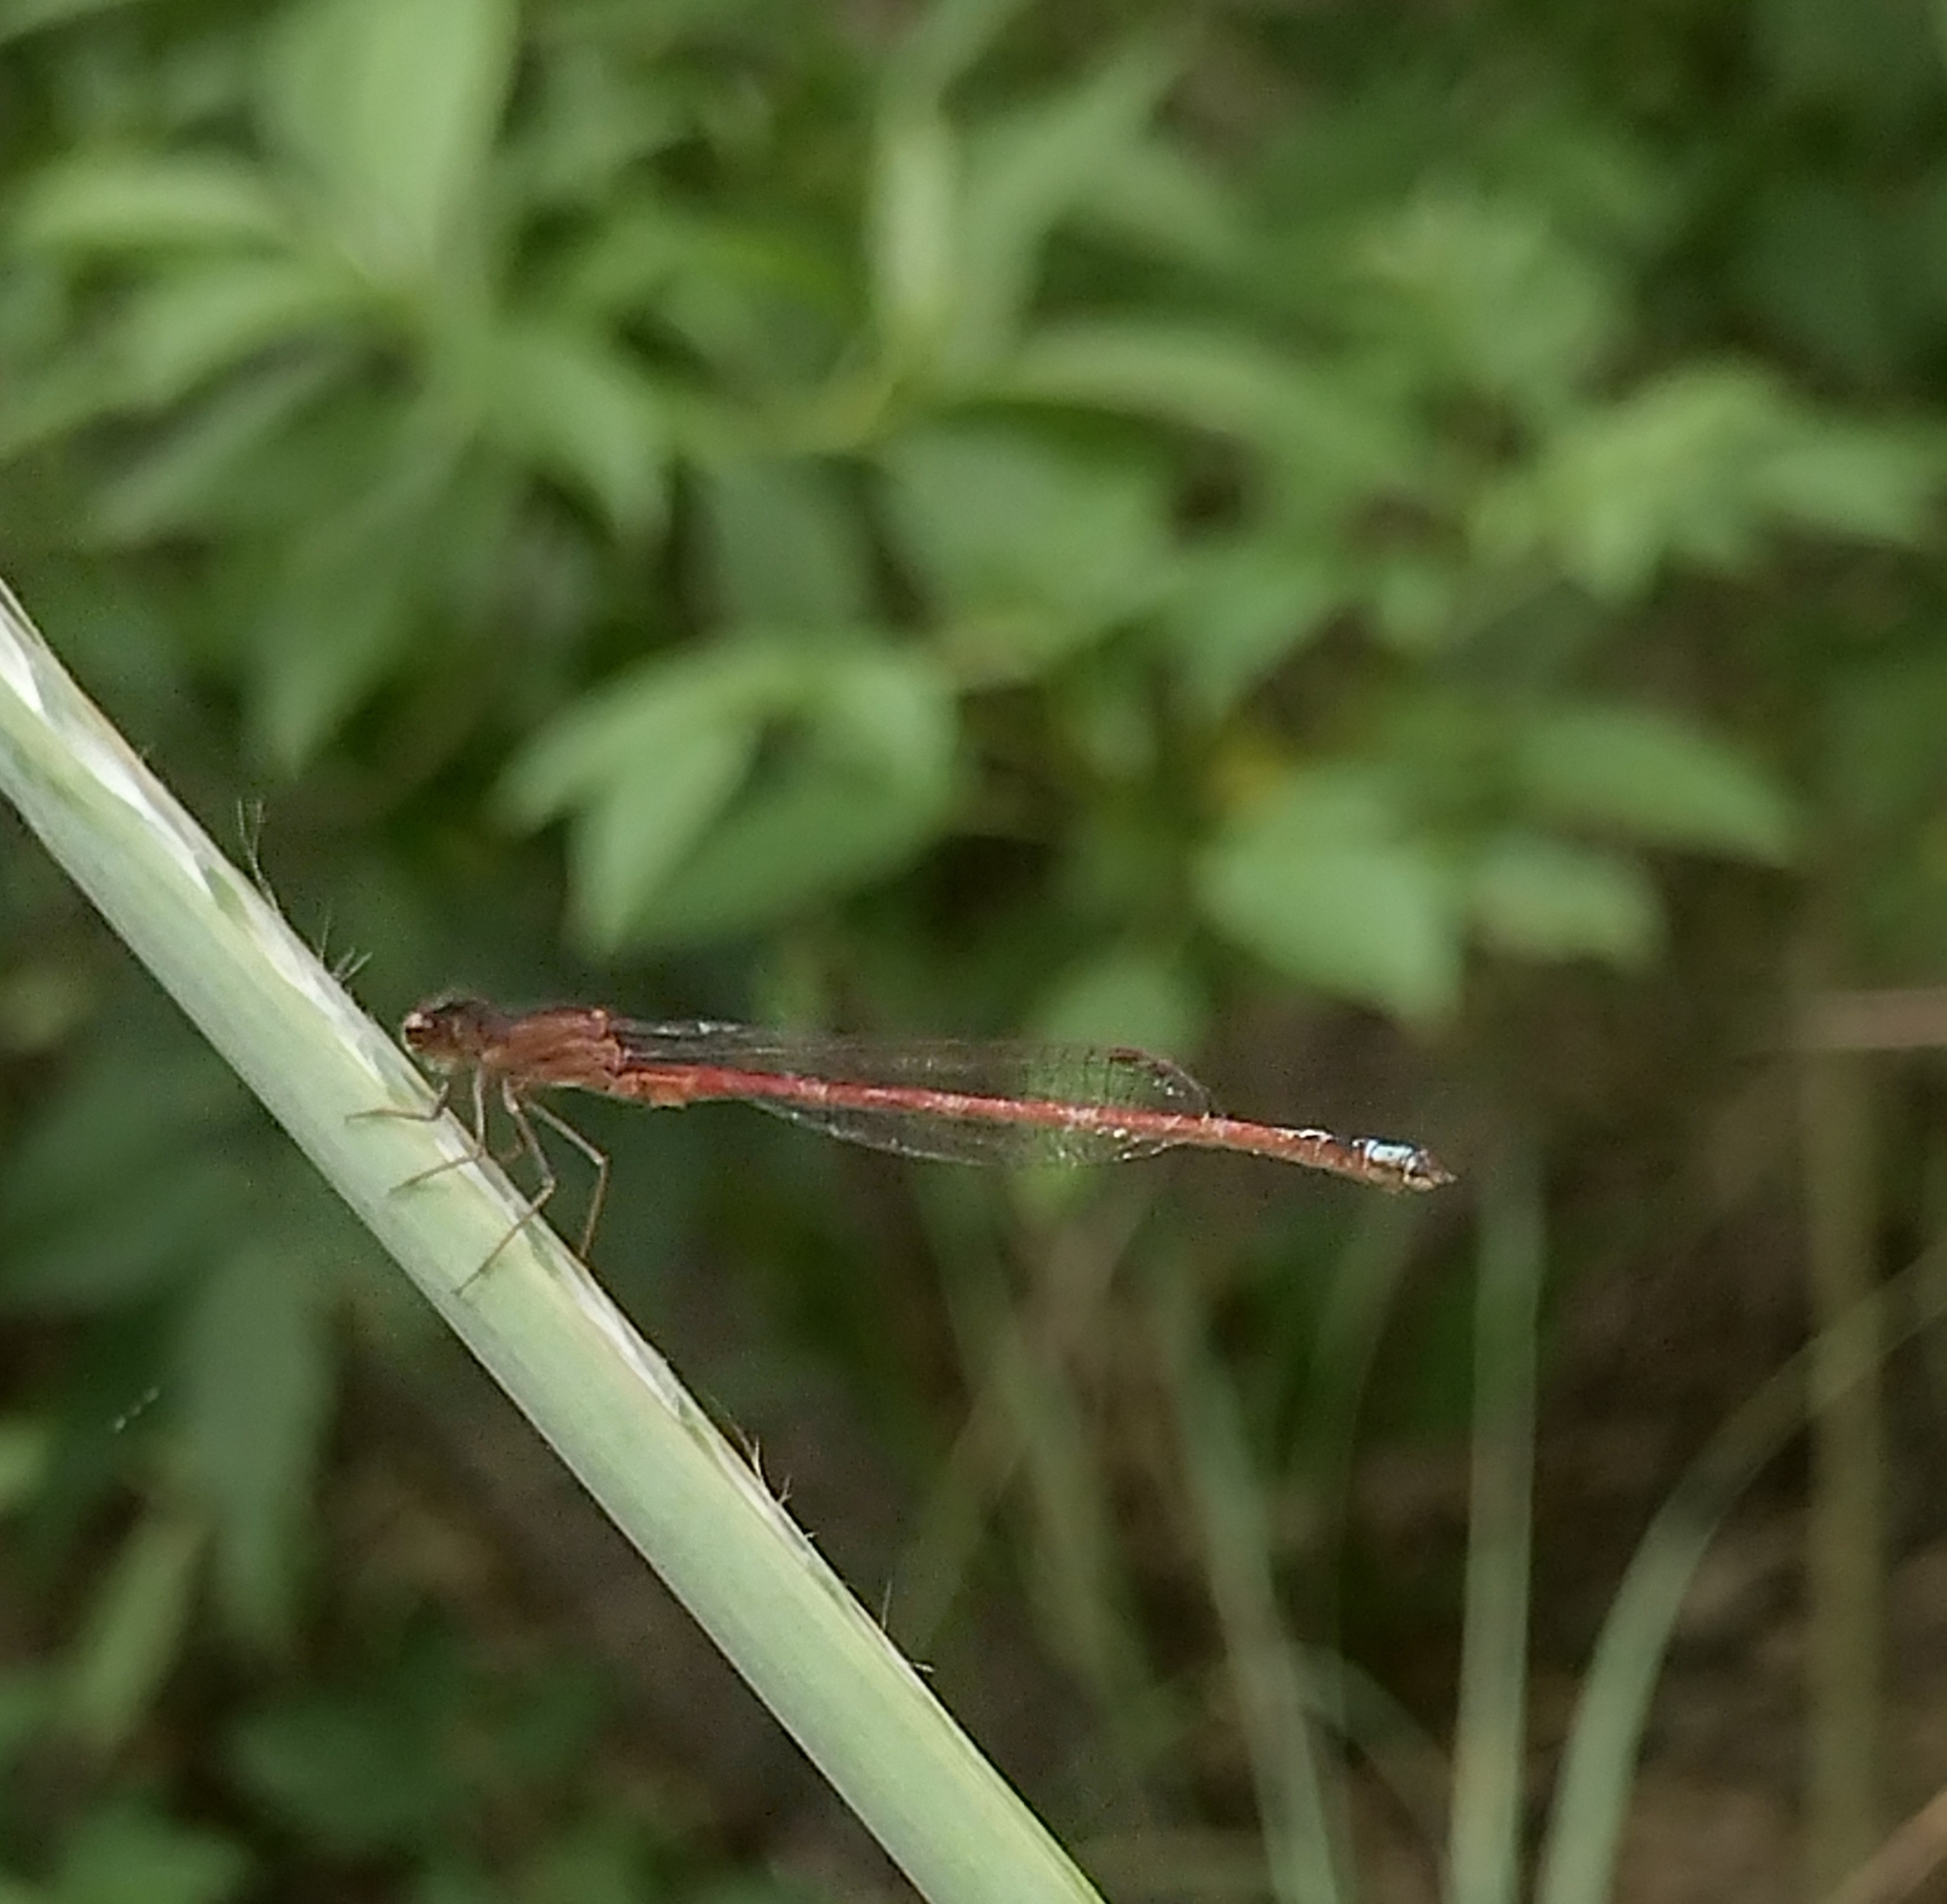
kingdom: Animalia
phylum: Arthropoda
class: Insecta
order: Odonata
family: Coenagrionidae
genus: Oxyagrion
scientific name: Oxyagrion rubidum
